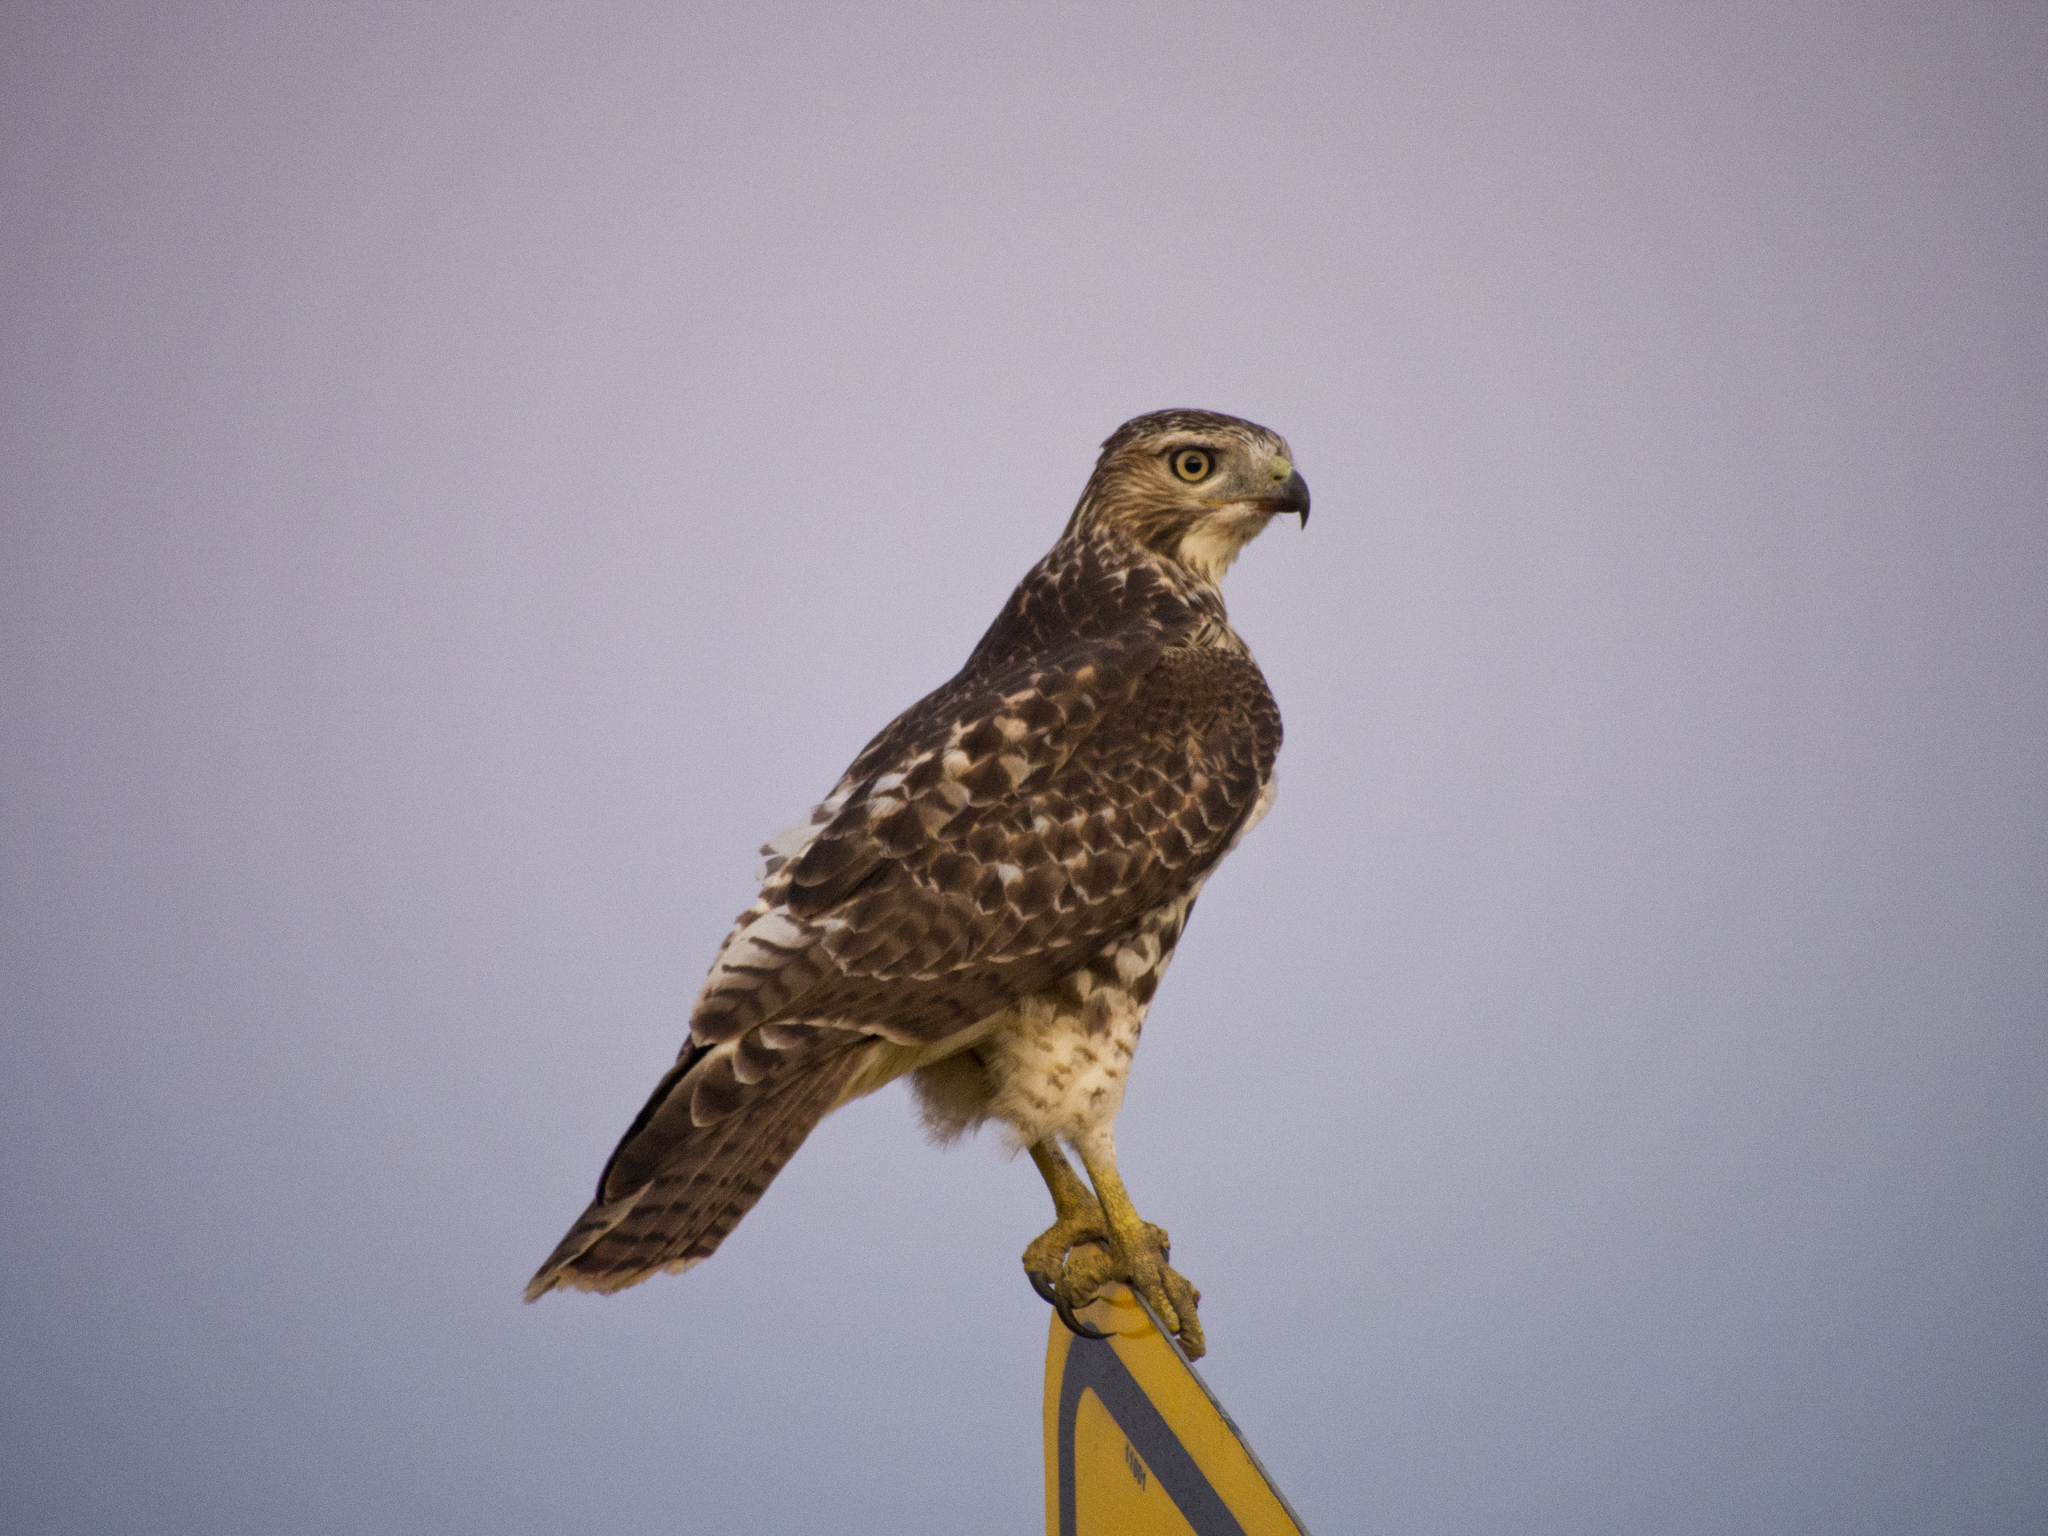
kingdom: Animalia
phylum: Chordata
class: Aves
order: Accipitriformes
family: Accipitridae
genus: Buteo
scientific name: Buteo jamaicensis
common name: Red-tailed hawk
